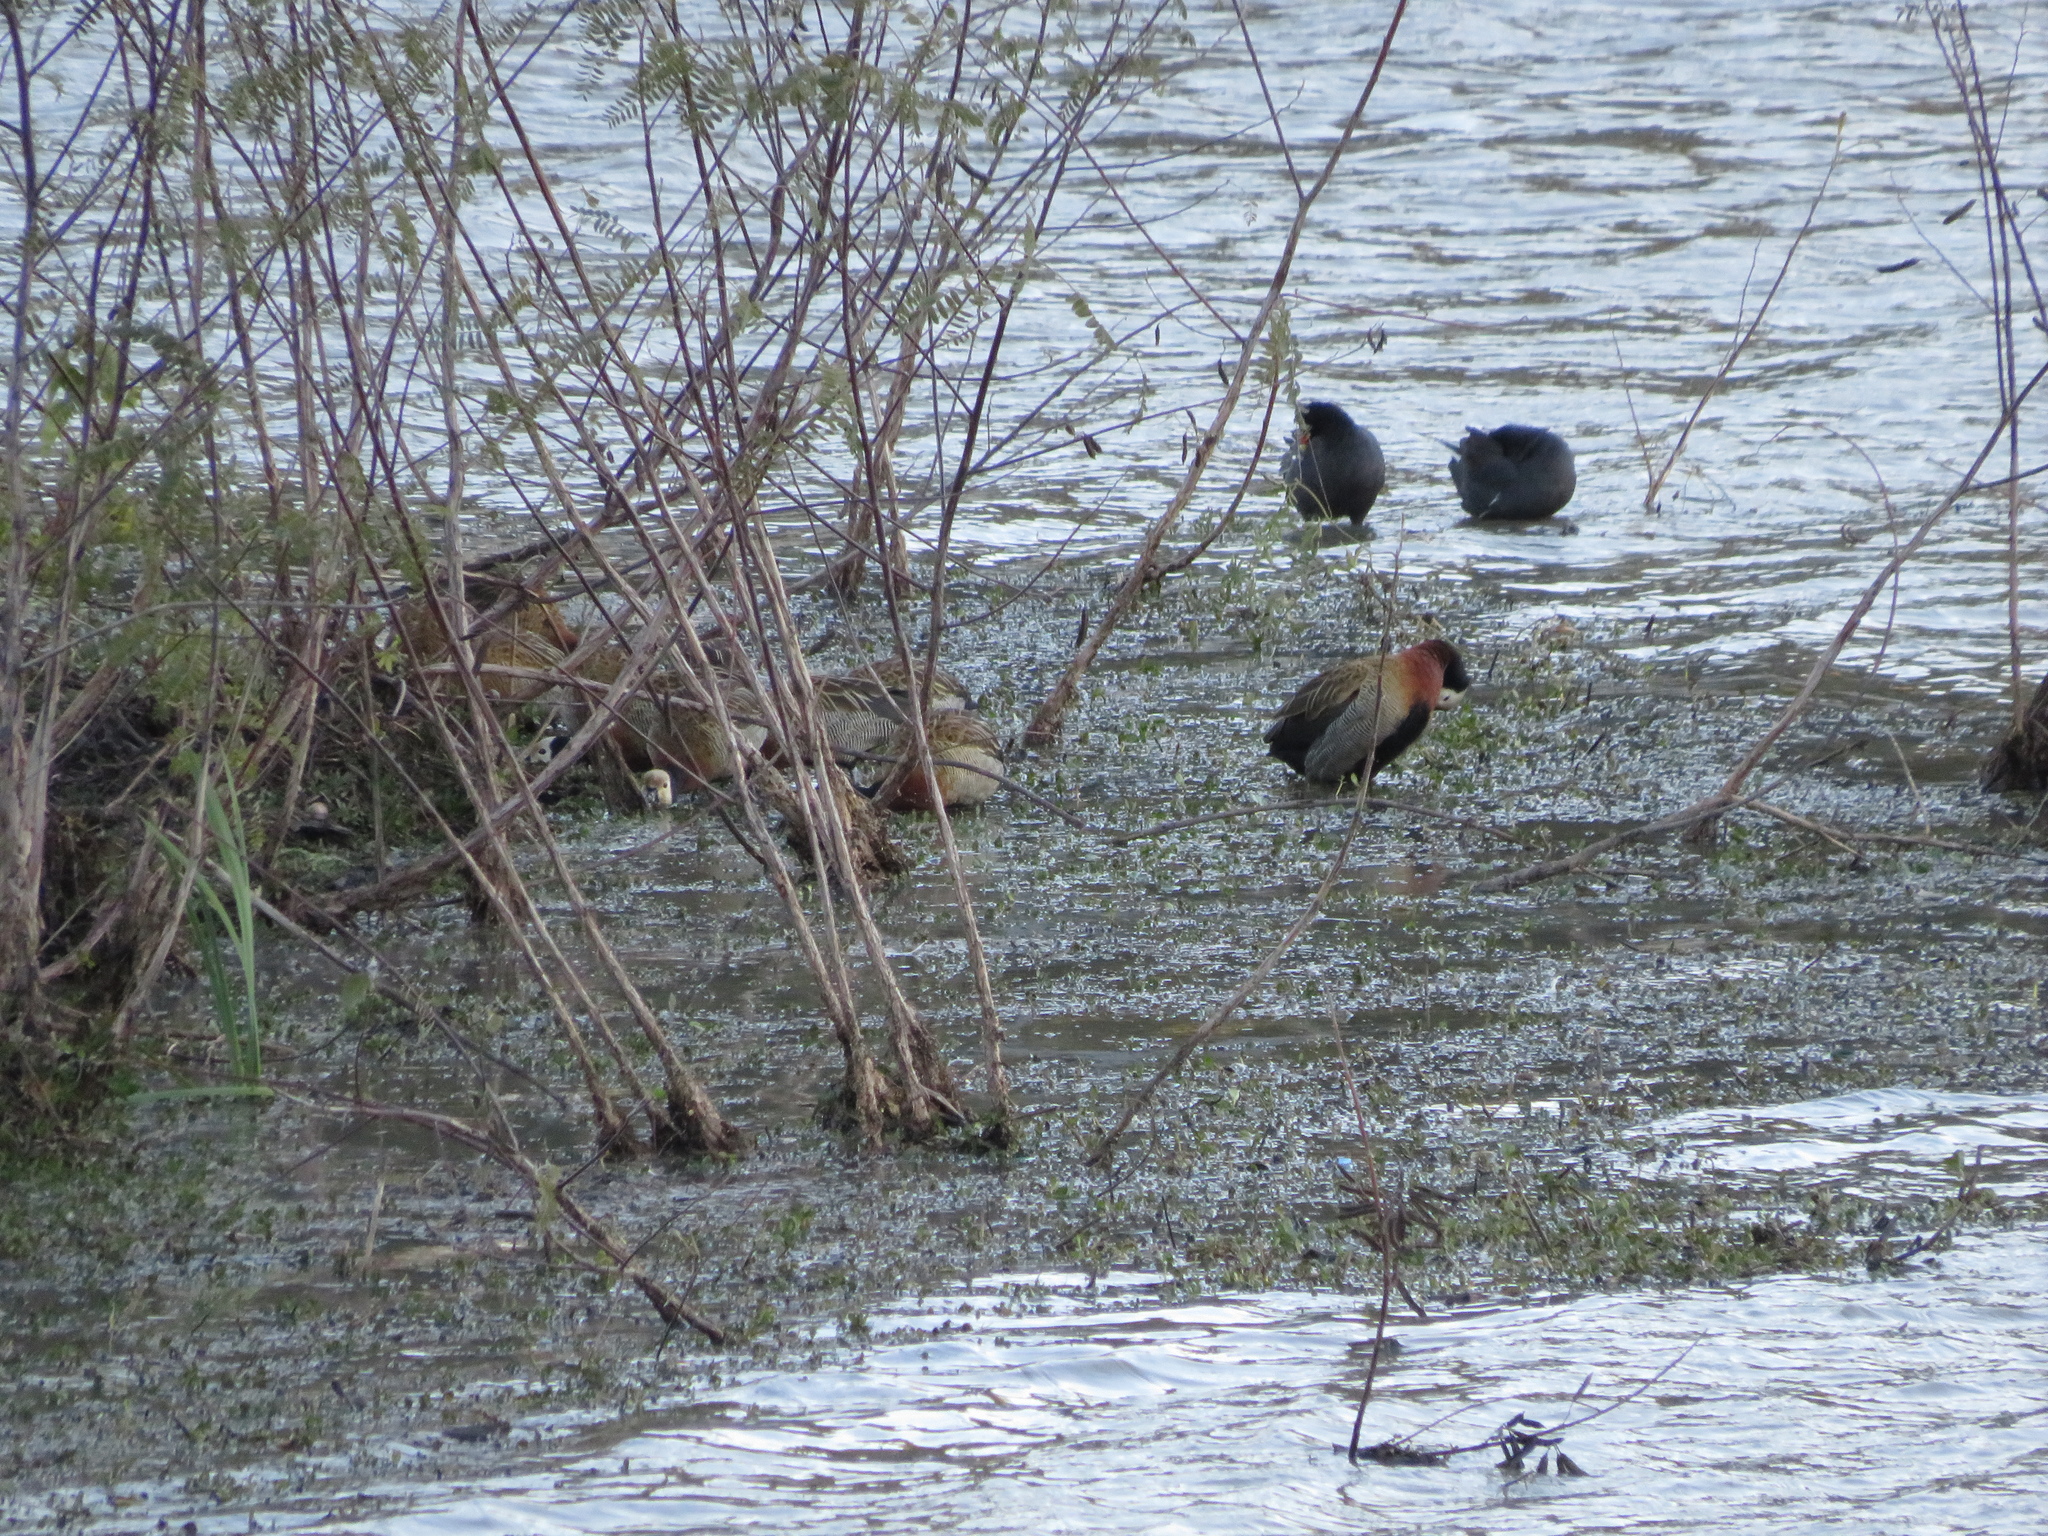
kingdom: Animalia
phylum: Chordata
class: Aves
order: Anseriformes
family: Anatidae
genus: Dendrocygna
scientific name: Dendrocygna viduata
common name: White-faced whistling duck
